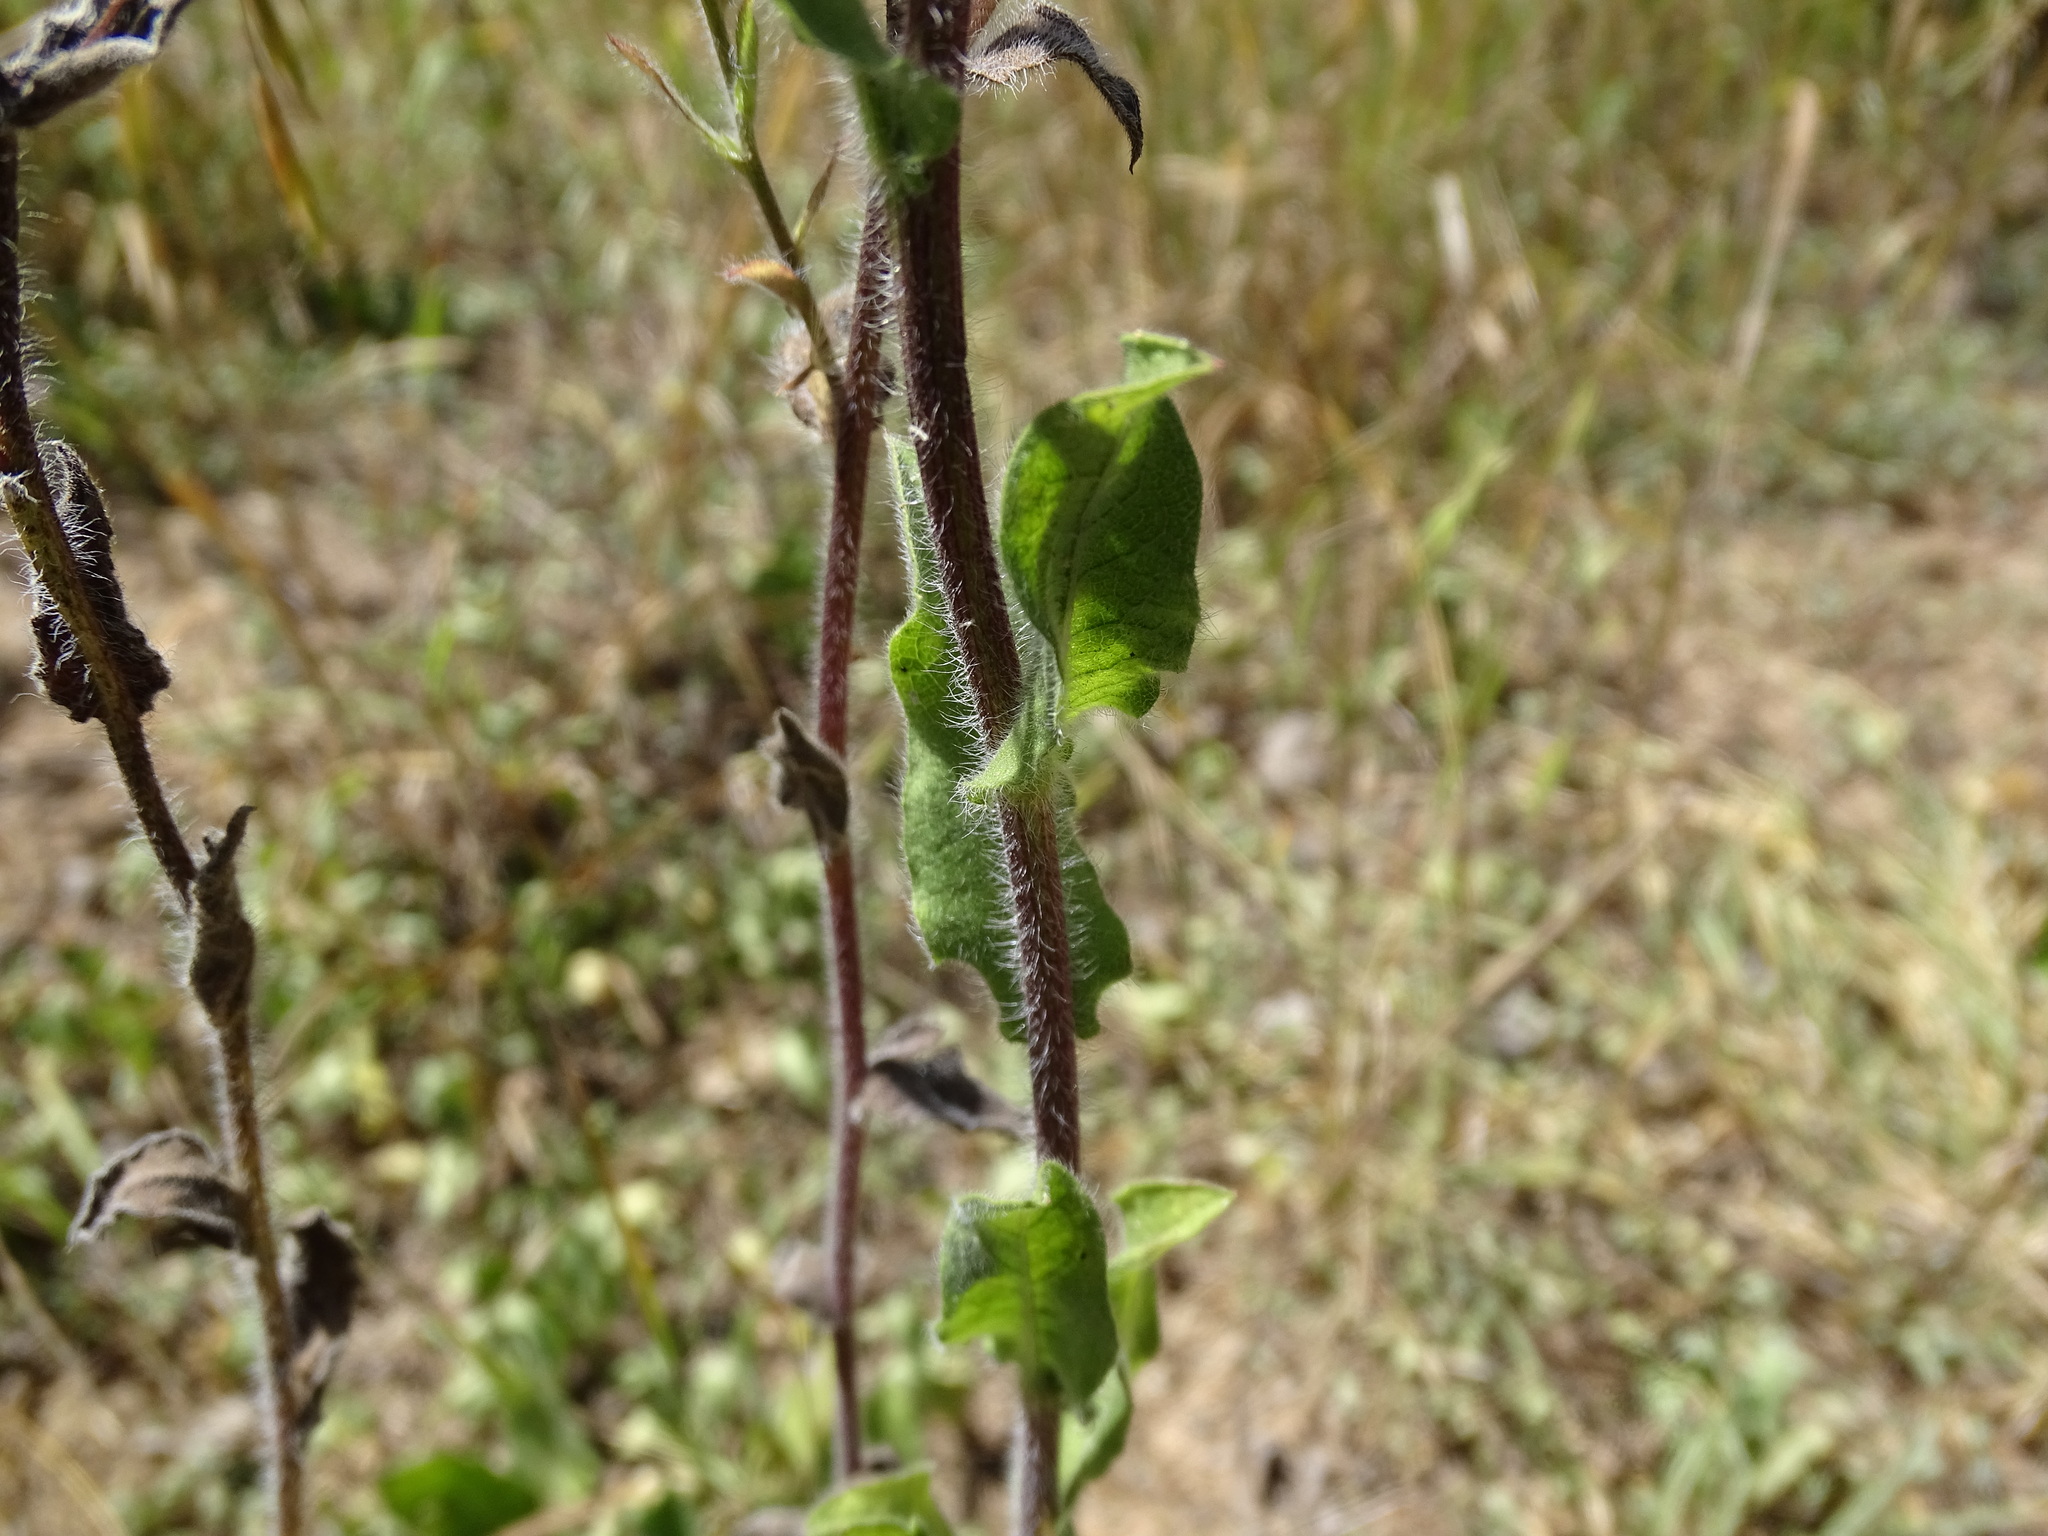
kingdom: Plantae
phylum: Tracheophyta
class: Magnoliopsida
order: Asterales
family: Asteraceae
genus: Heterotheca
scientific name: Heterotheca inuloides
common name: False arnica
